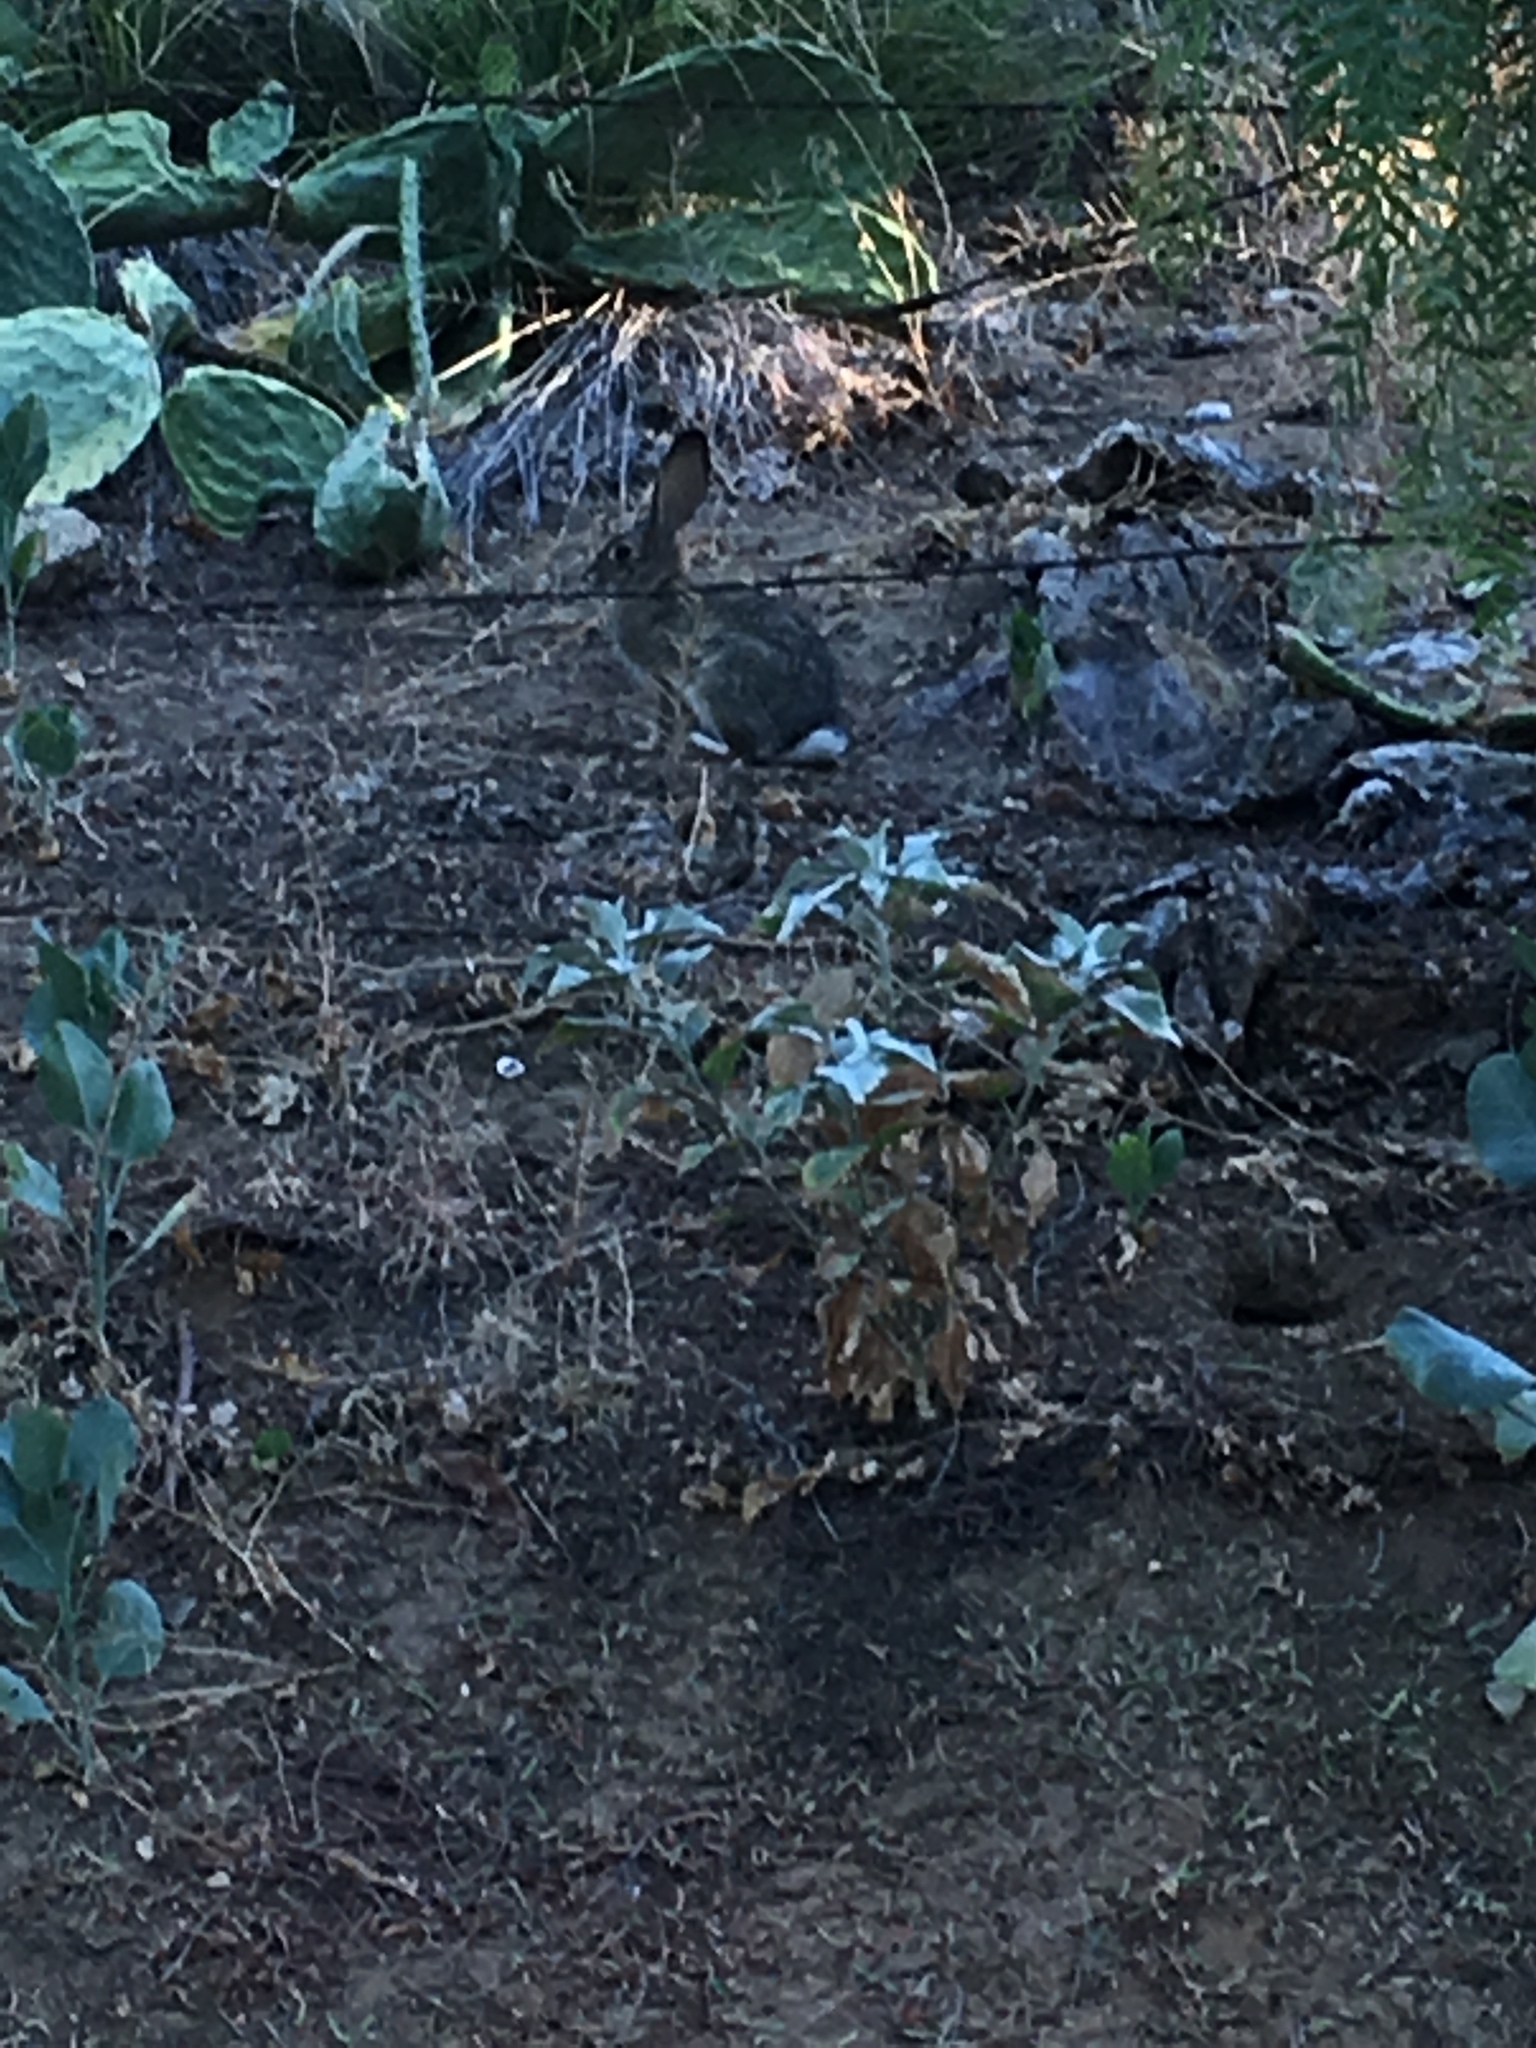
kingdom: Animalia
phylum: Chordata
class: Mammalia
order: Lagomorpha
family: Leporidae
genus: Sylvilagus
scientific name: Sylvilagus audubonii
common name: Desert cottontail
